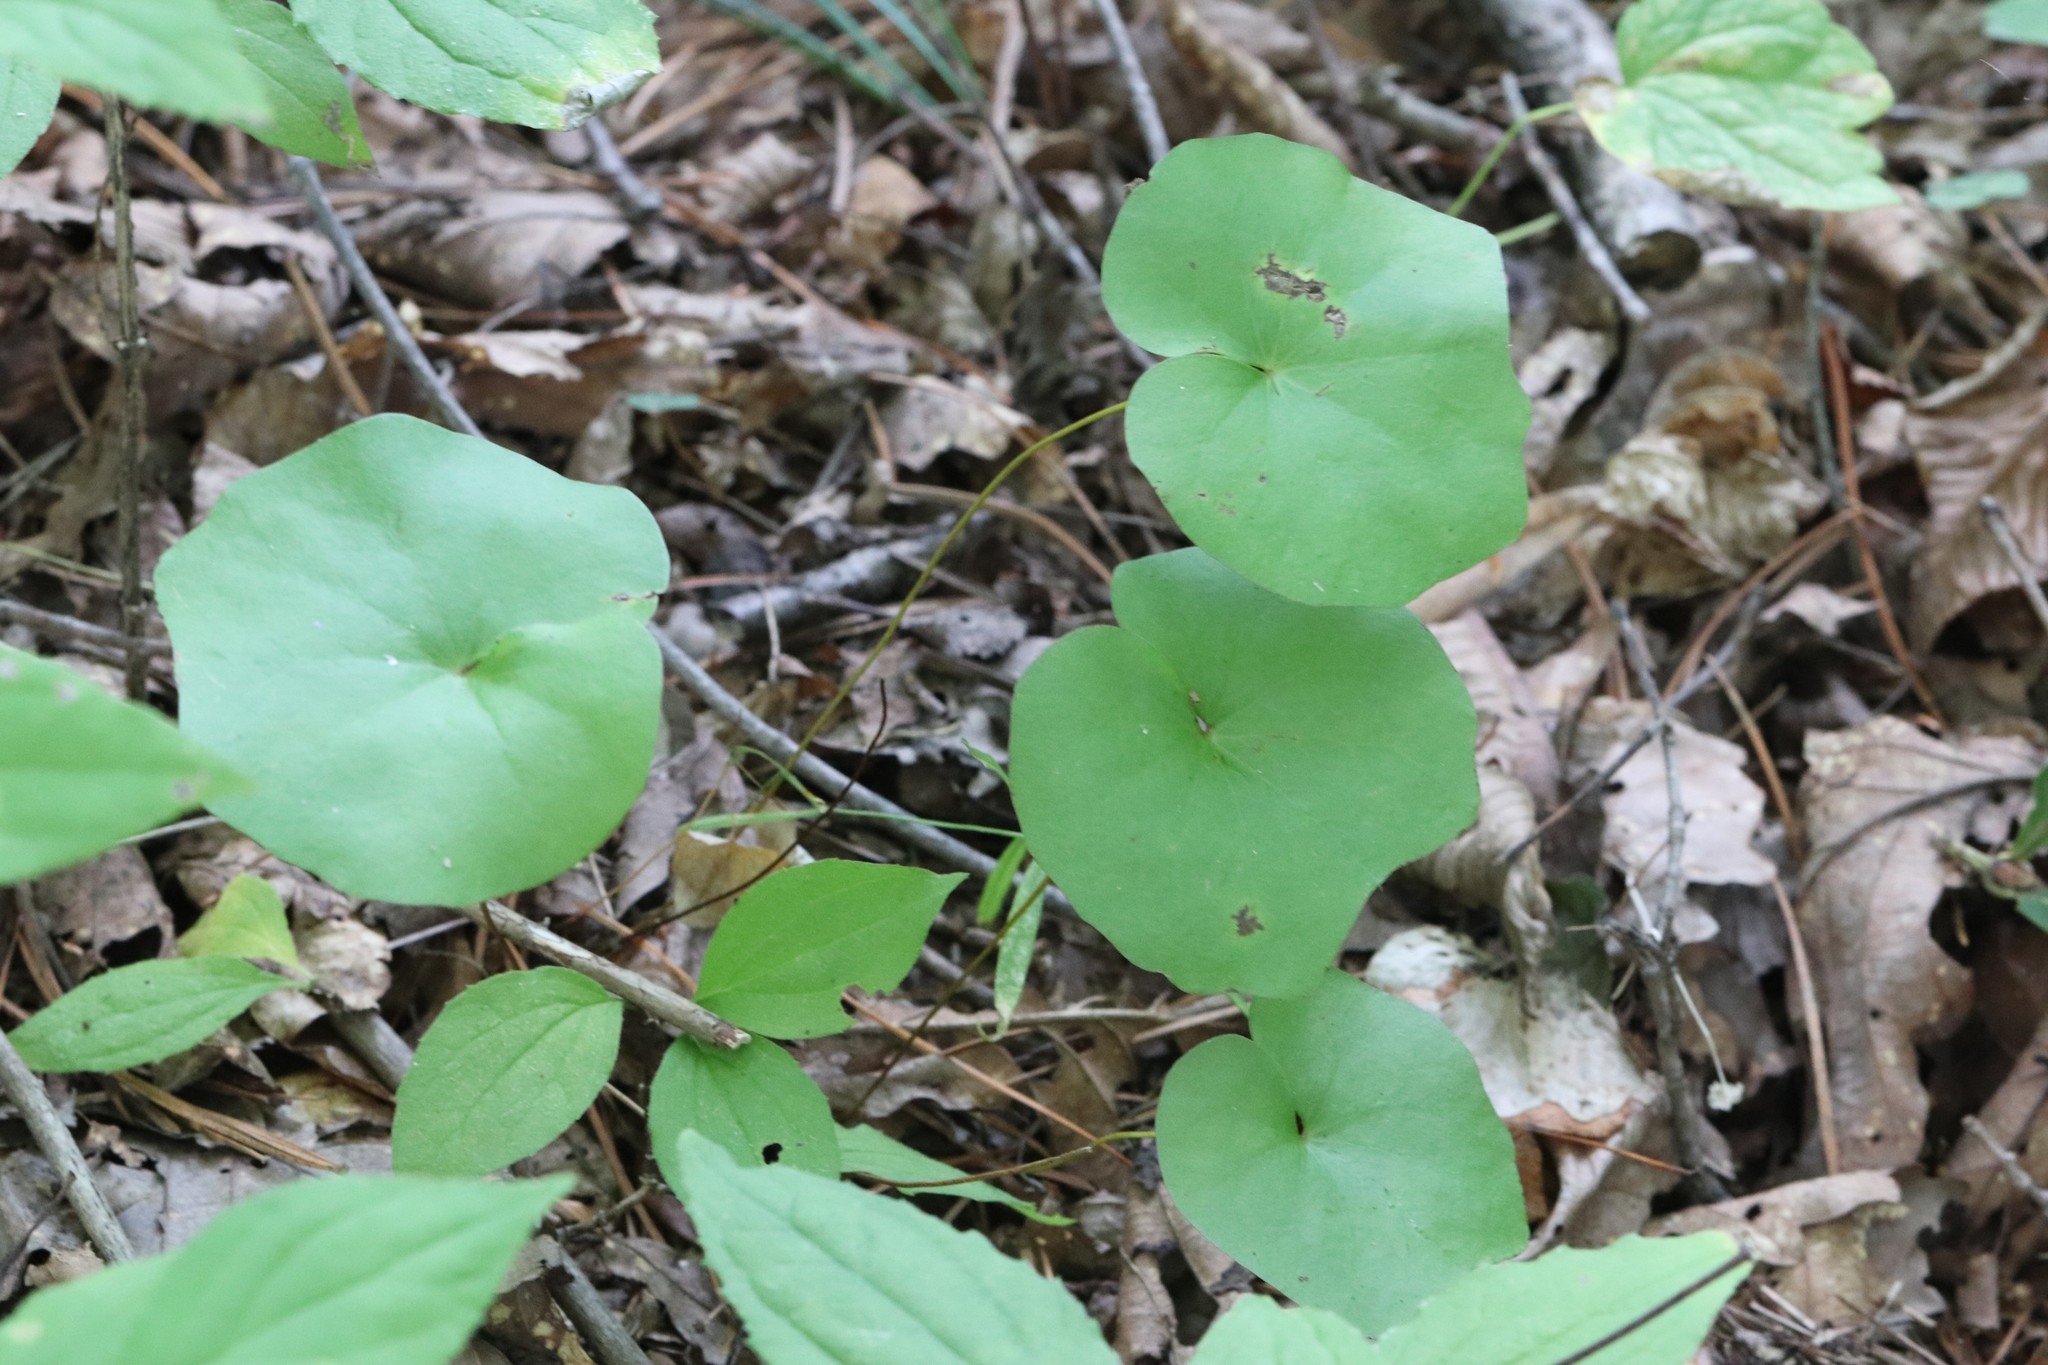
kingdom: Plantae
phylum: Tracheophyta
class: Magnoliopsida
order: Ranunculales
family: Berberidaceae
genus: Plagiorhegma
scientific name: Plagiorhegma dubium
